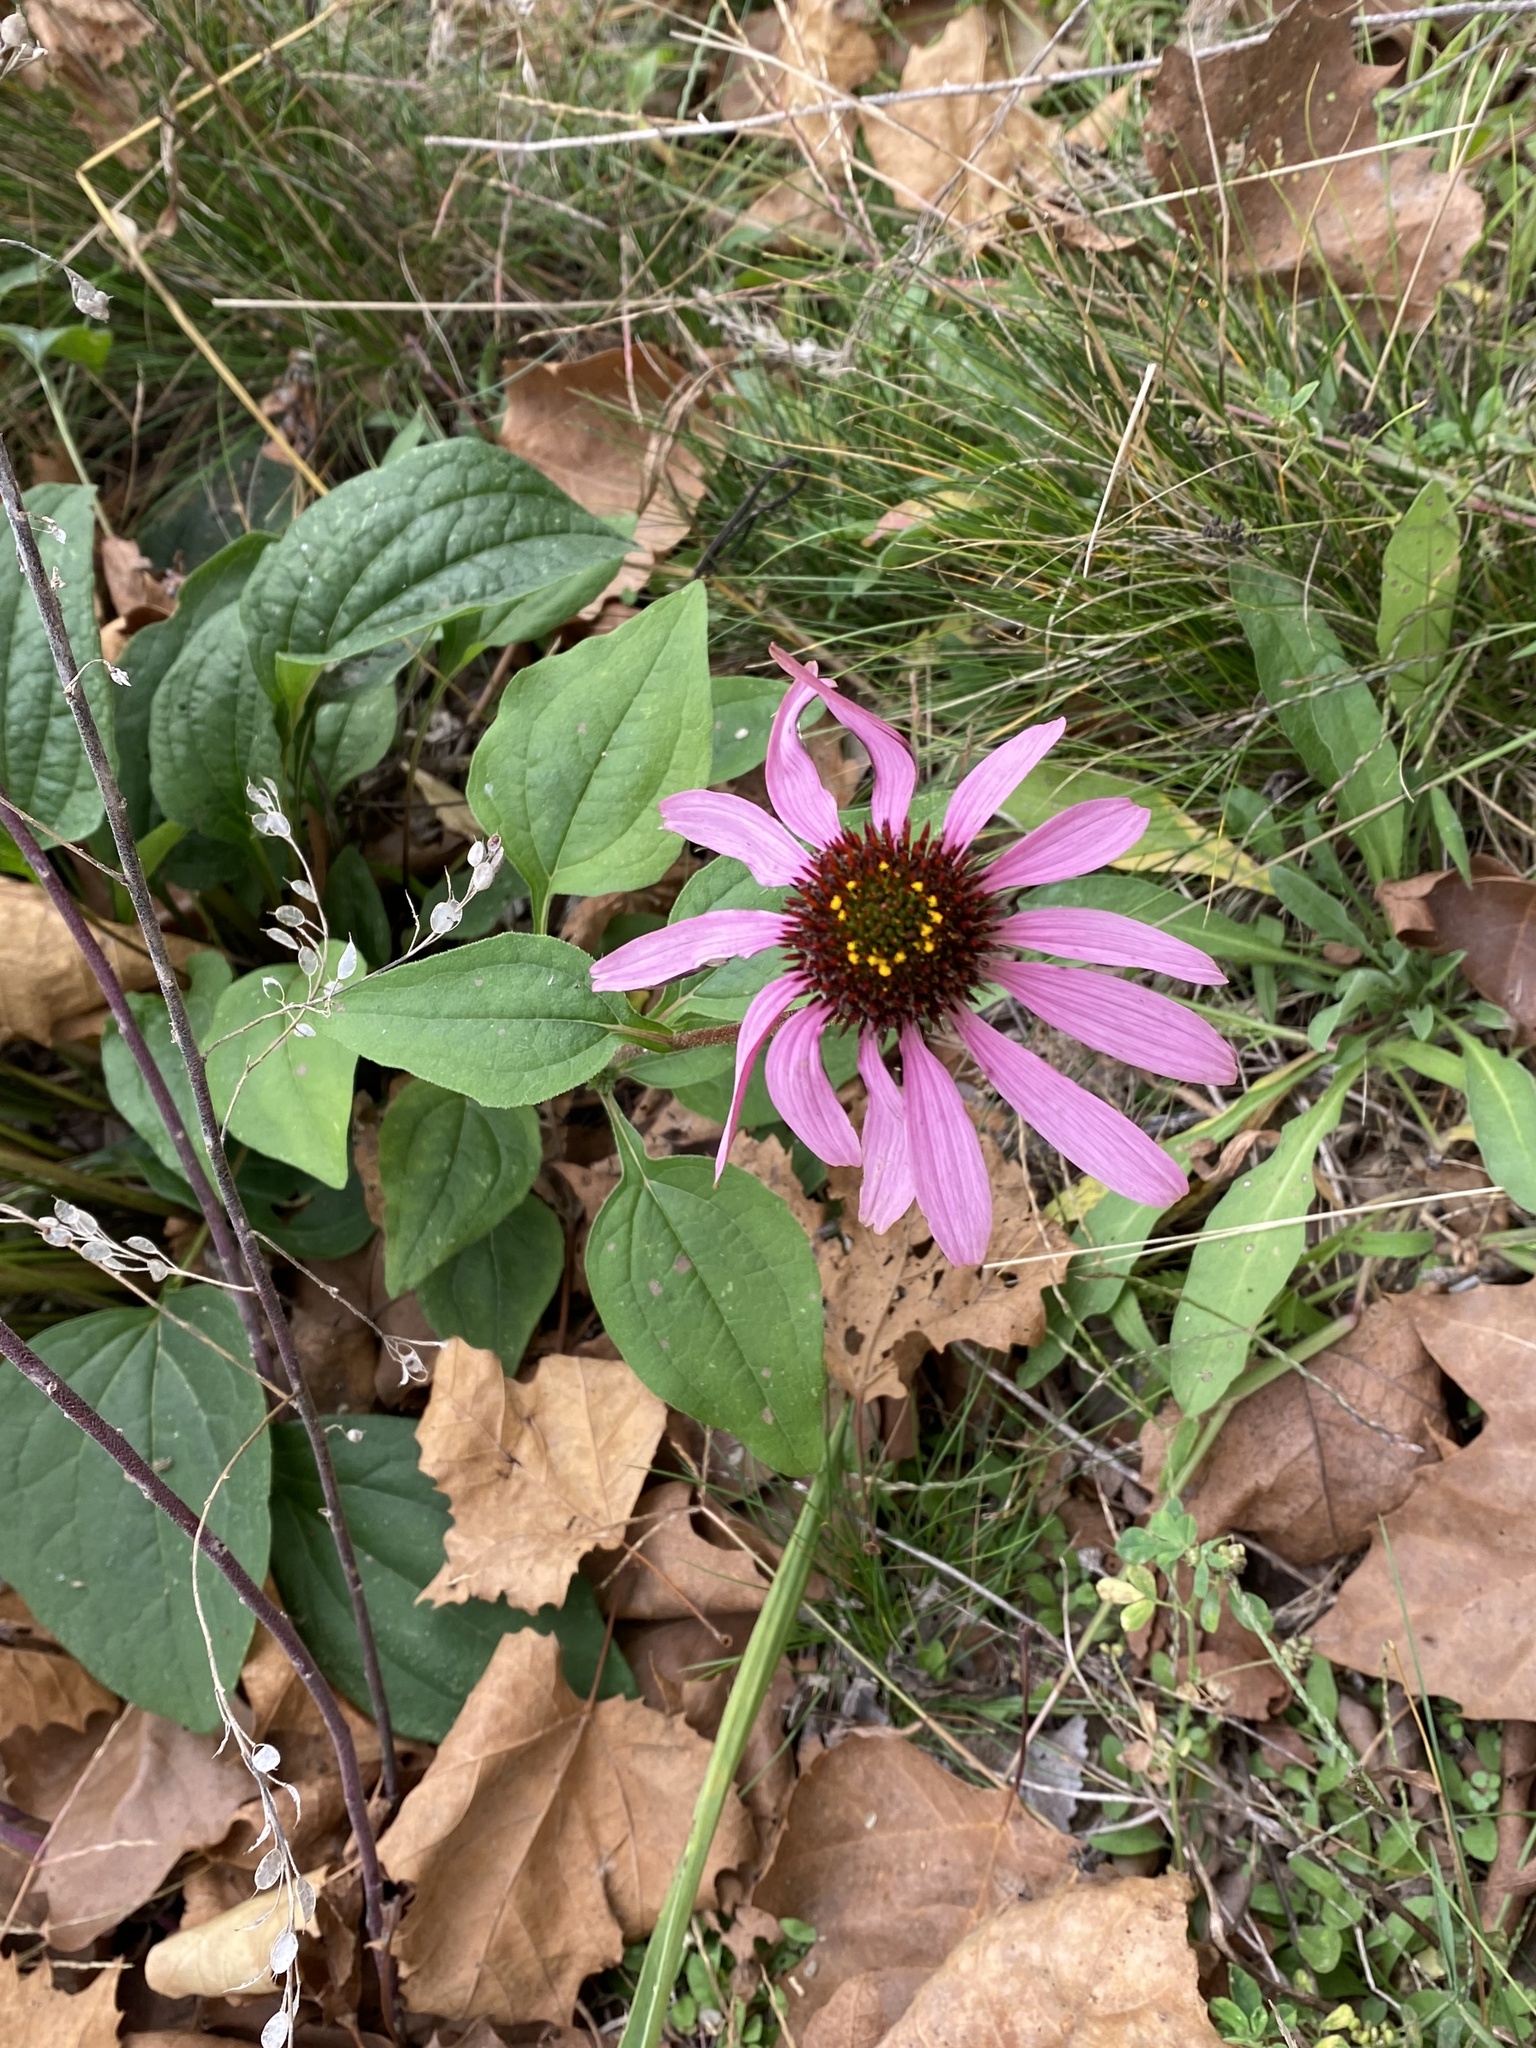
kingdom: Plantae
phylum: Tracheophyta
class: Magnoliopsida
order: Asterales
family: Asteraceae
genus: Echinacea
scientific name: Echinacea purpurea
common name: Broad-leaved purple coneflower
